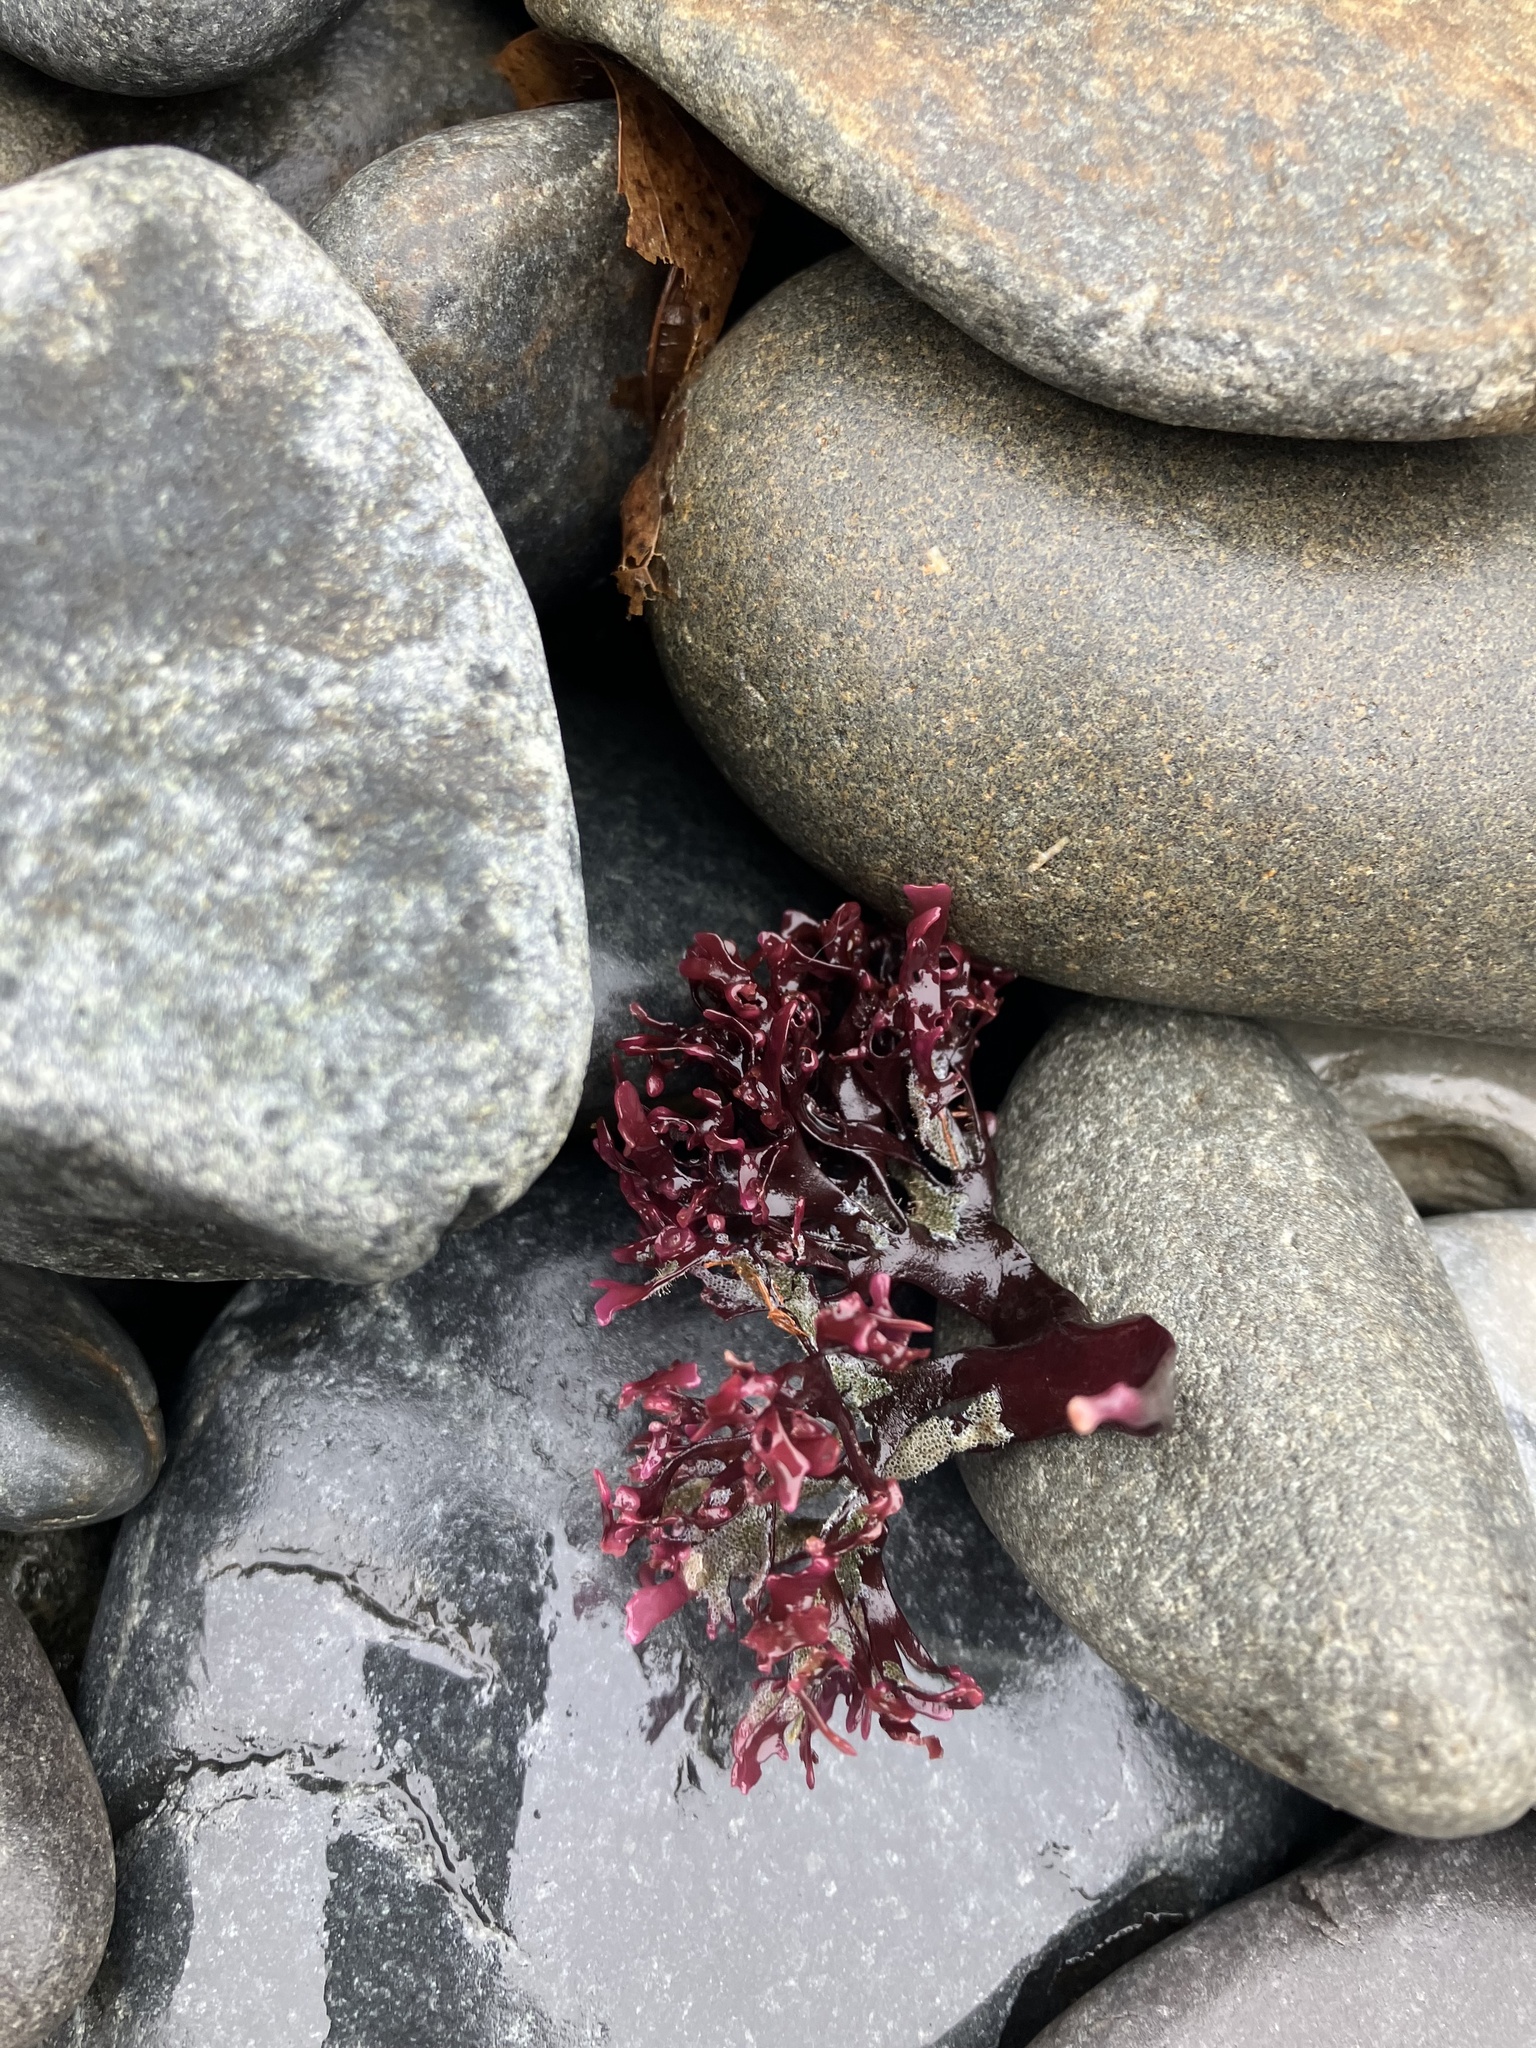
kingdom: Plantae
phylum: Rhodophyta
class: Florideophyceae
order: Gigartinales
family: Phyllophoraceae
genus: Mastocarpus
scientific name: Mastocarpus stellatus
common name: False irish moss
